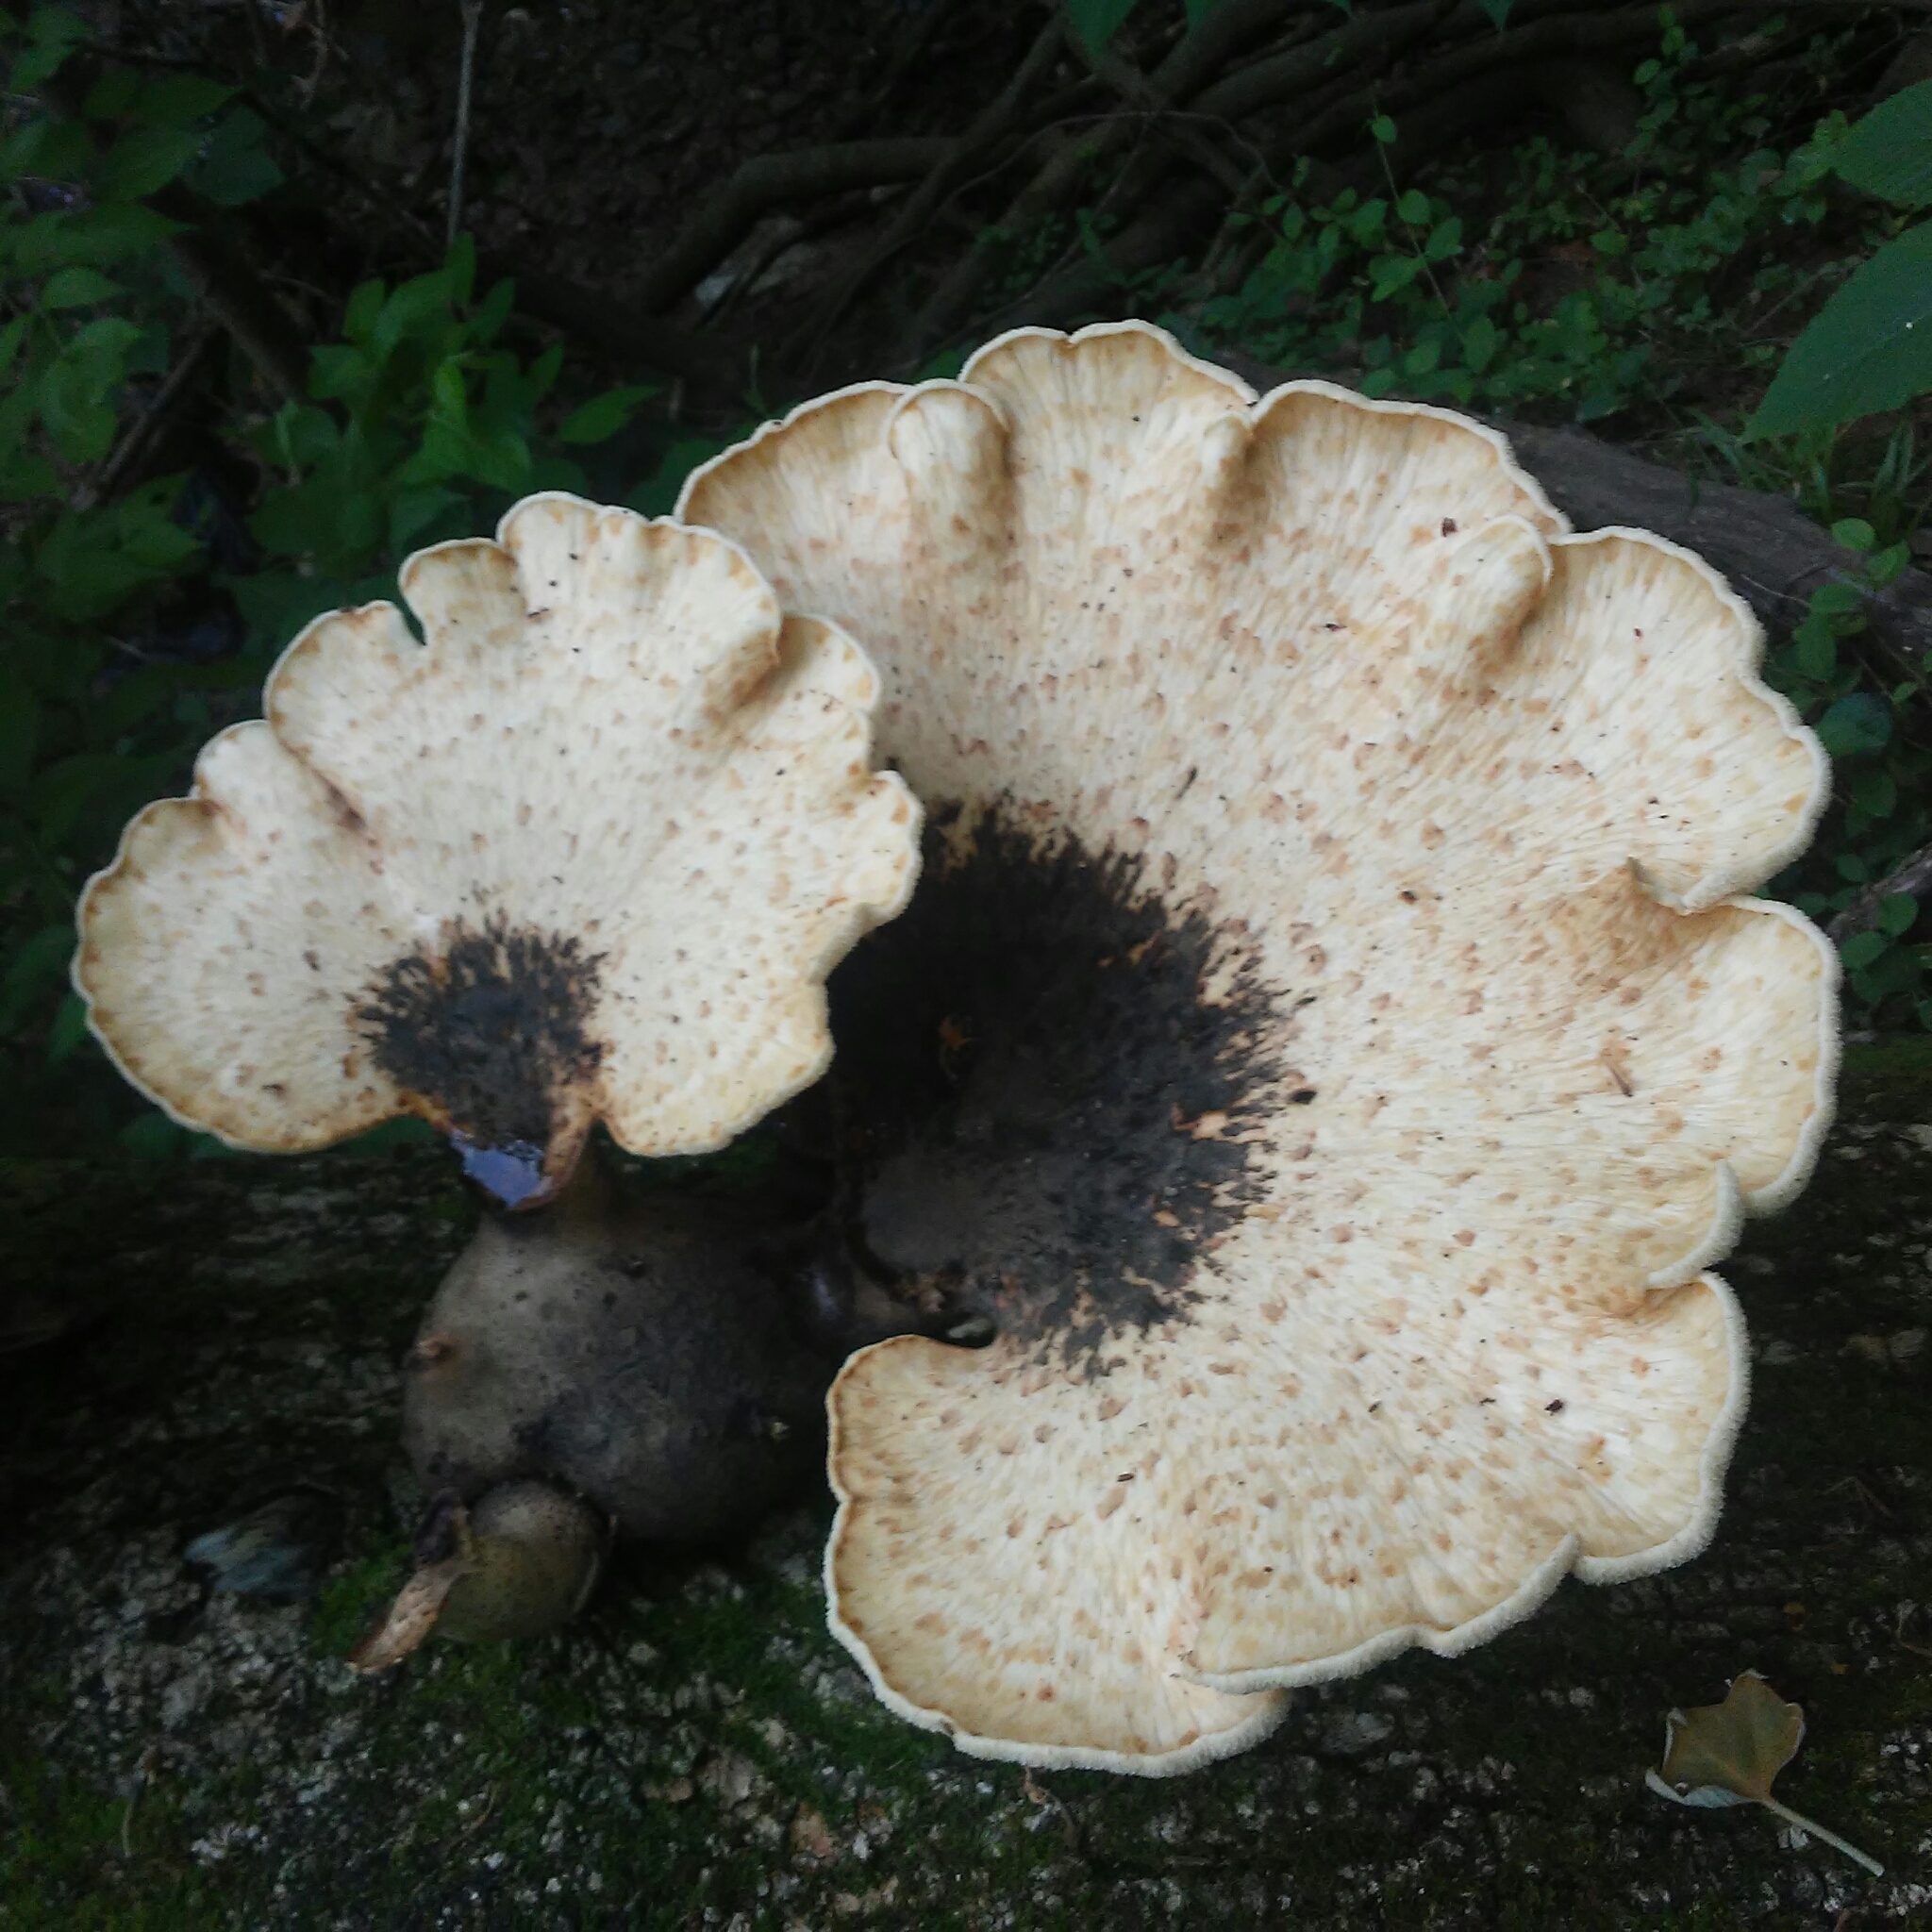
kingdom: Fungi
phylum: Basidiomycota
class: Agaricomycetes
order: Polyporales
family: Polyporaceae
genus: Cerioporus
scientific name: Cerioporus squamosus
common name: Dryad's saddle
